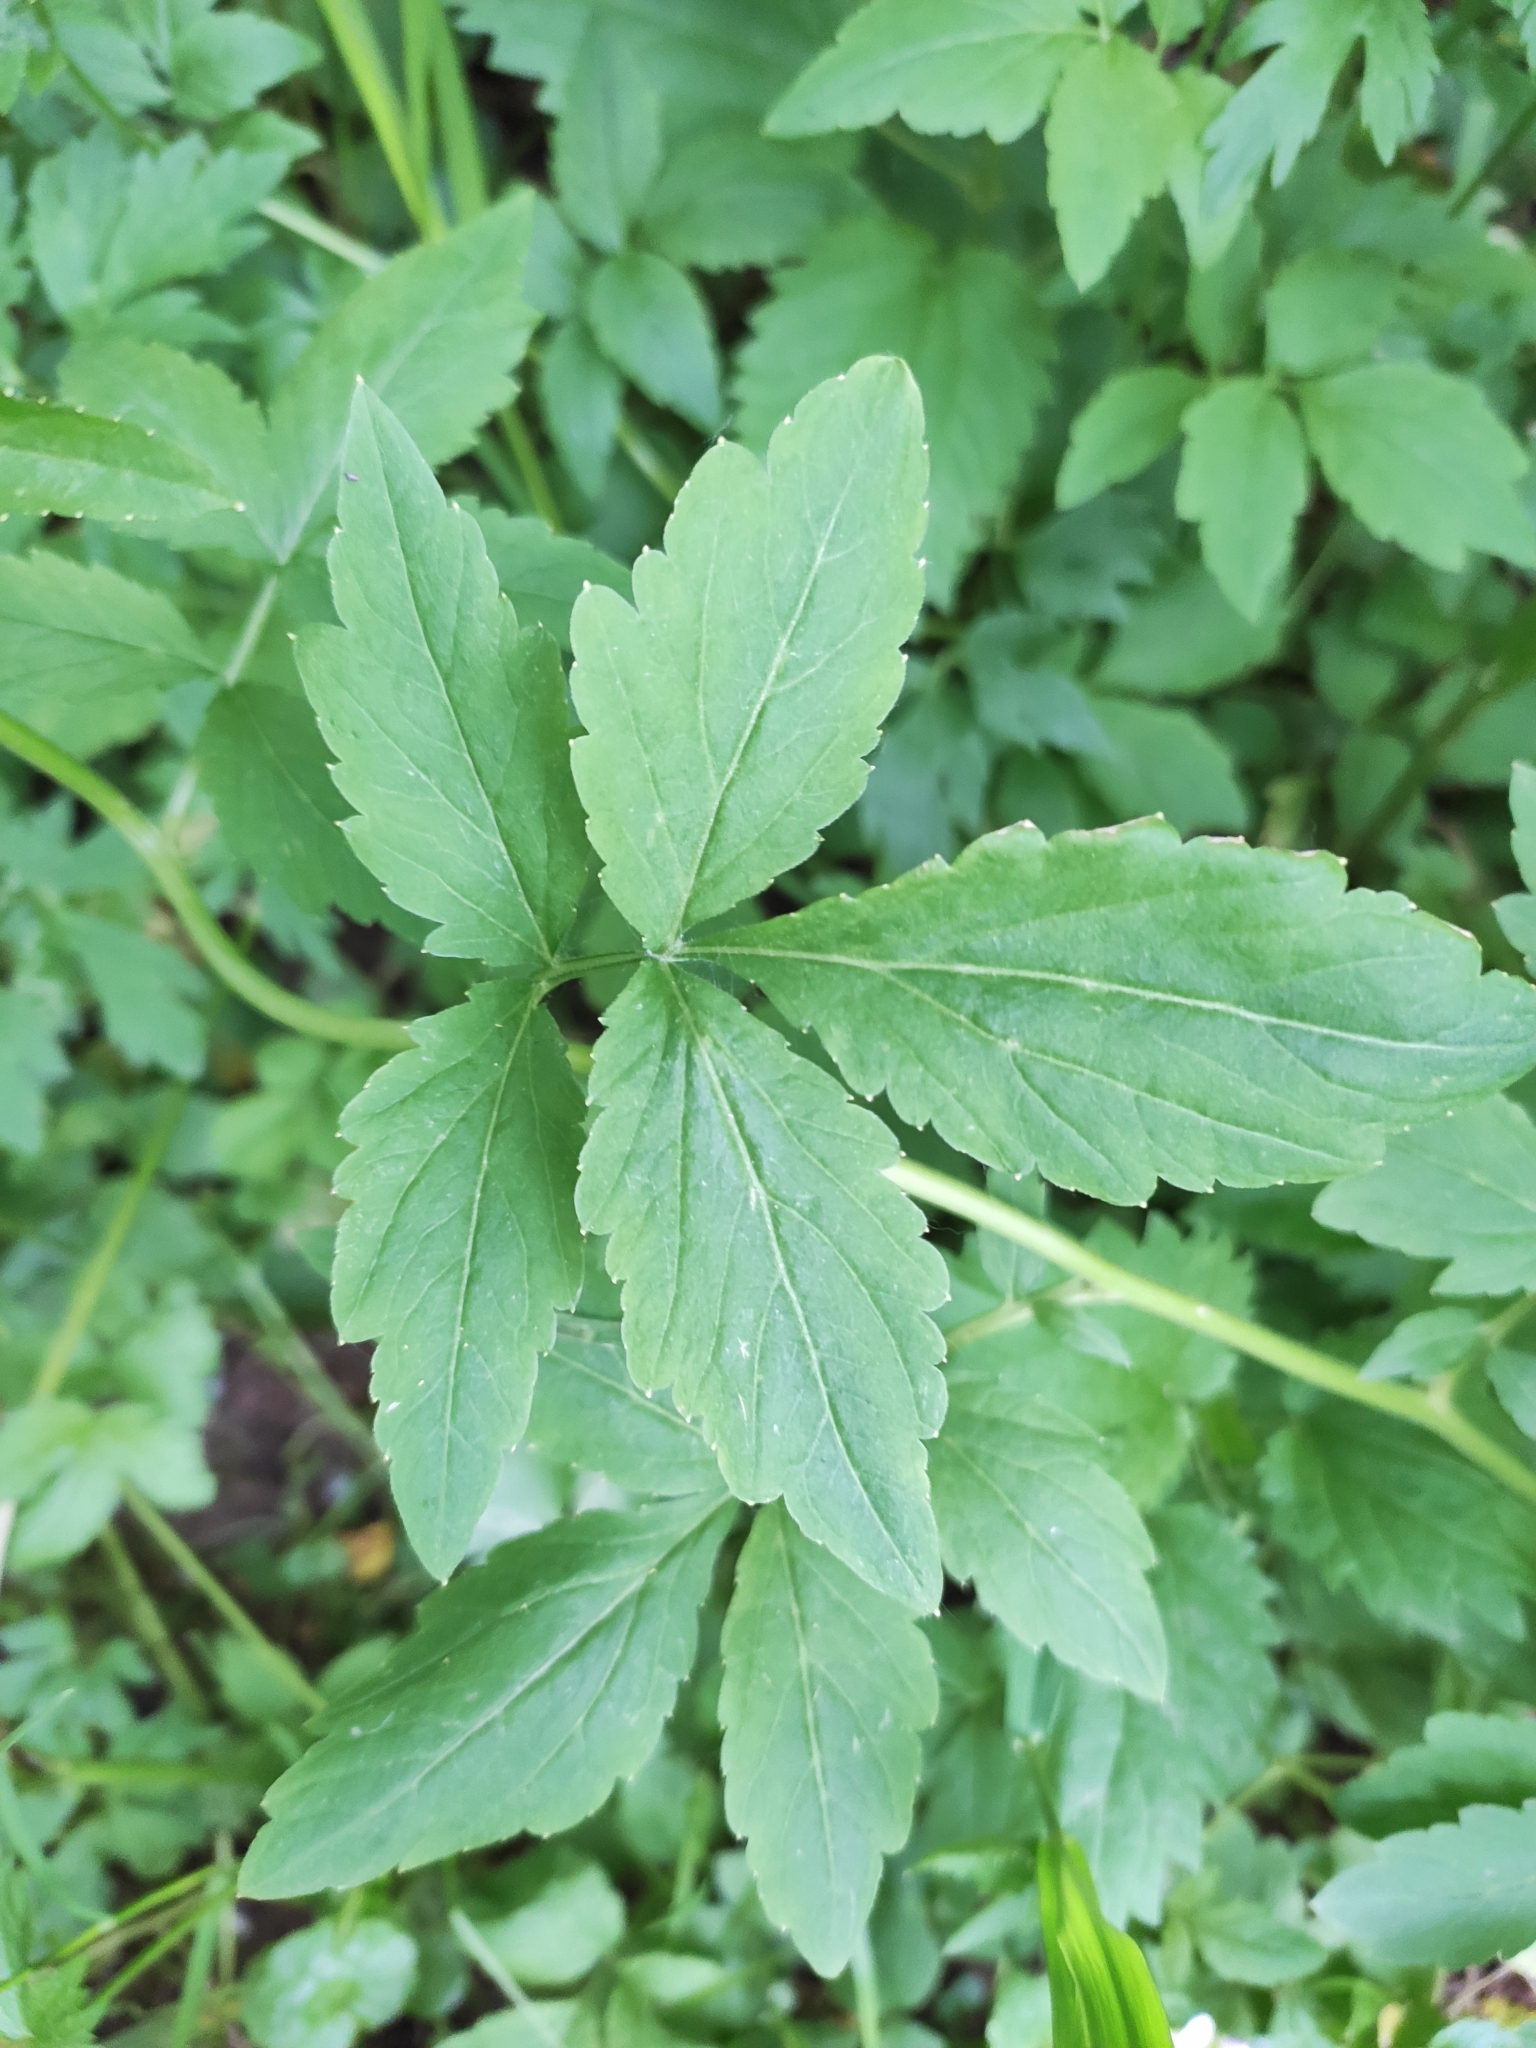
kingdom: Plantae
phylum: Tracheophyta
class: Magnoliopsida
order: Brassicales
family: Brassicaceae
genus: Cardamine
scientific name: Cardamine macrophylla
